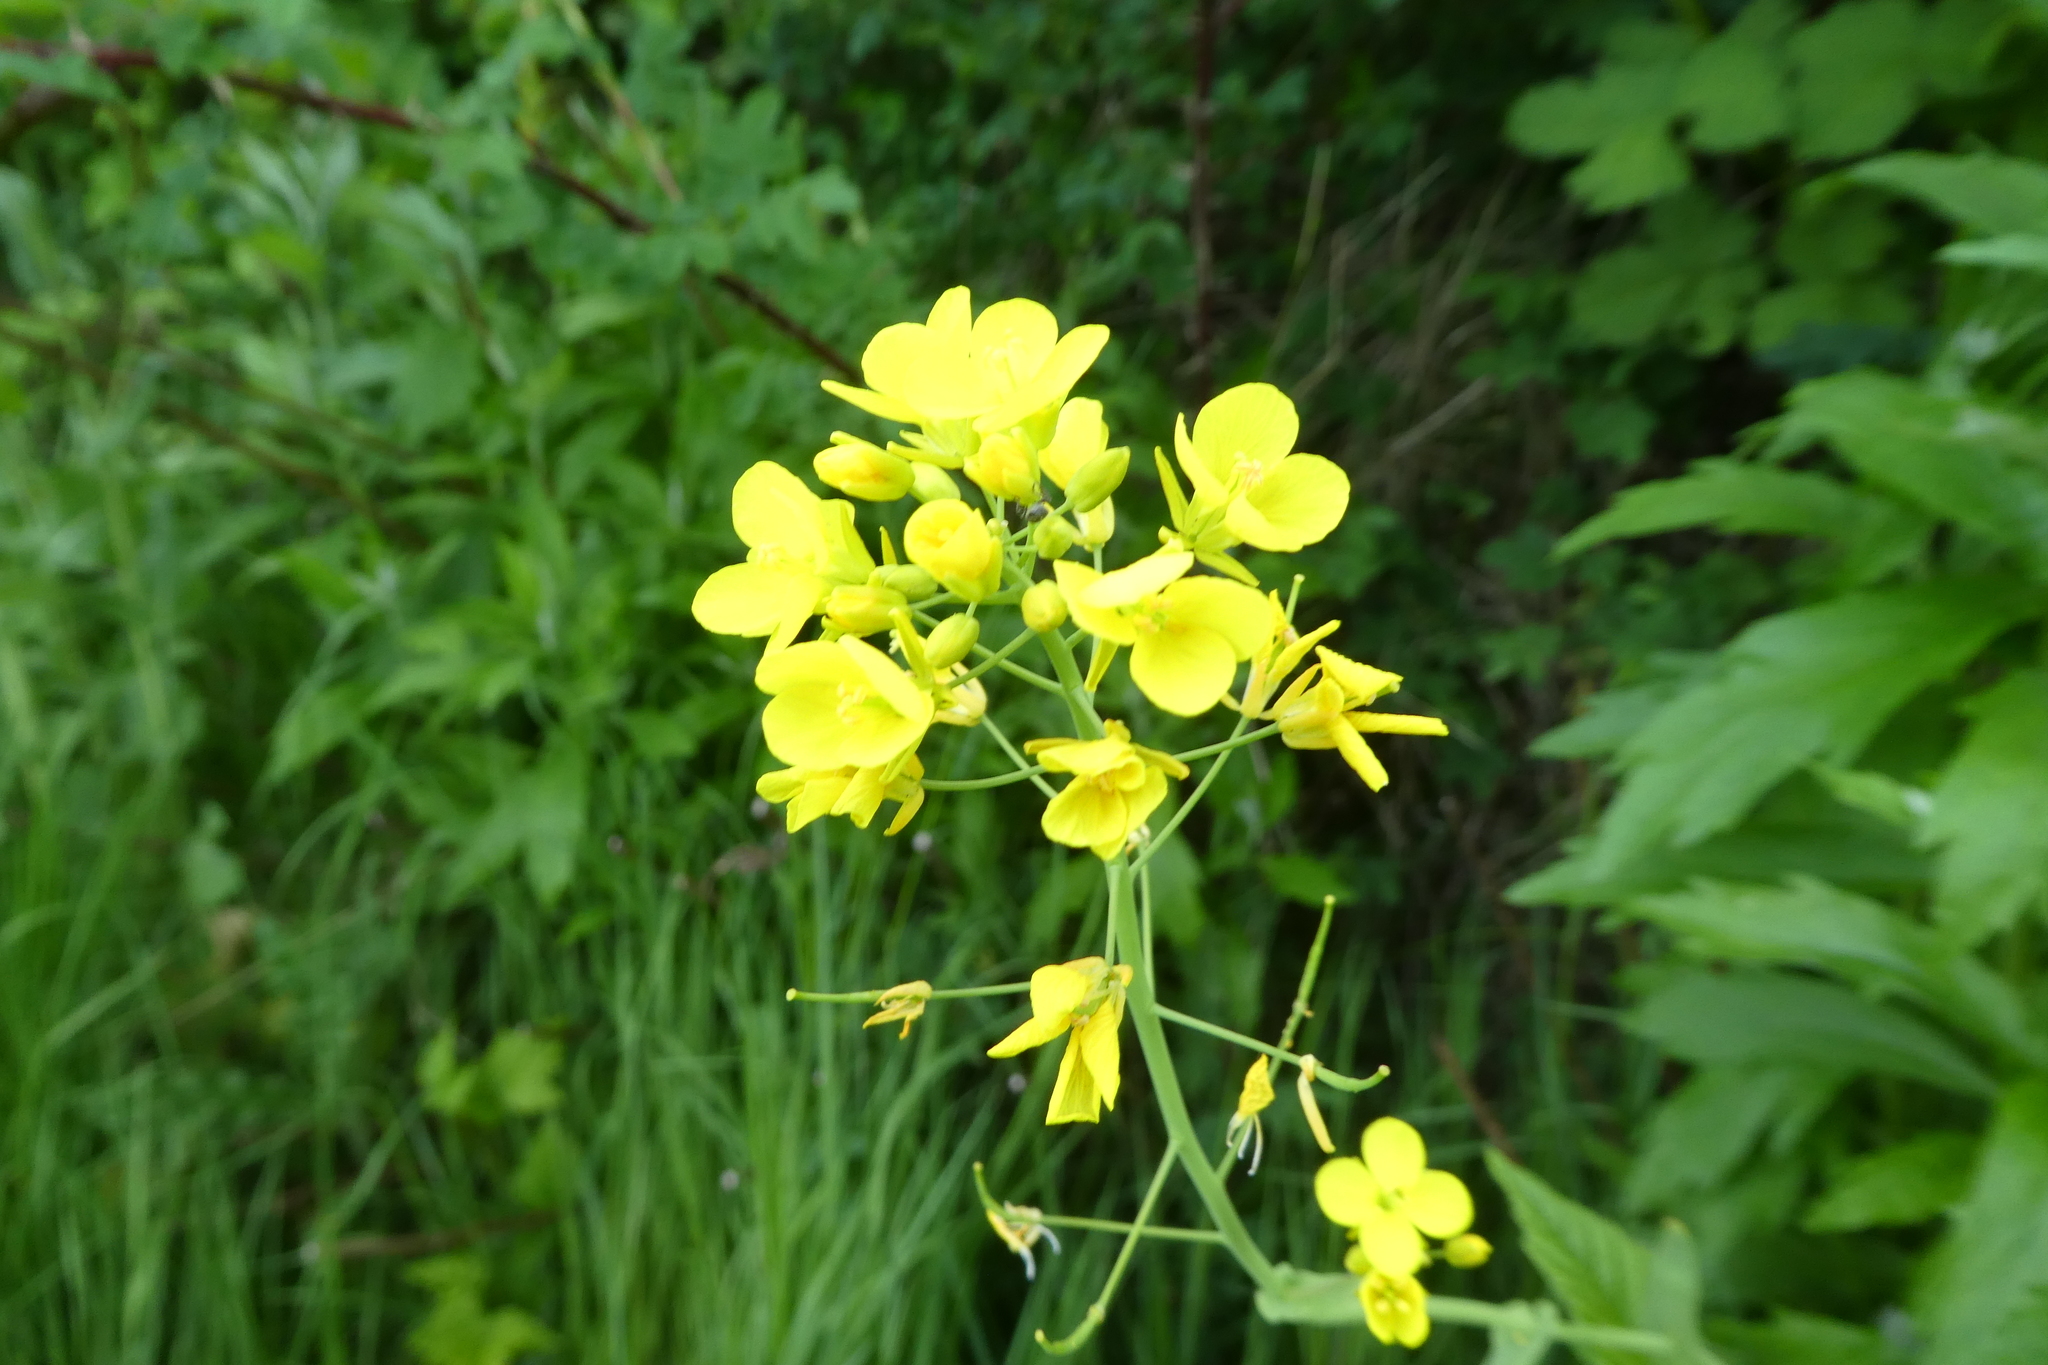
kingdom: Plantae
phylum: Tracheophyta
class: Magnoliopsida
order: Brassicales
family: Brassicaceae
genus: Brassica
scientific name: Brassica rapa
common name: Field mustard
